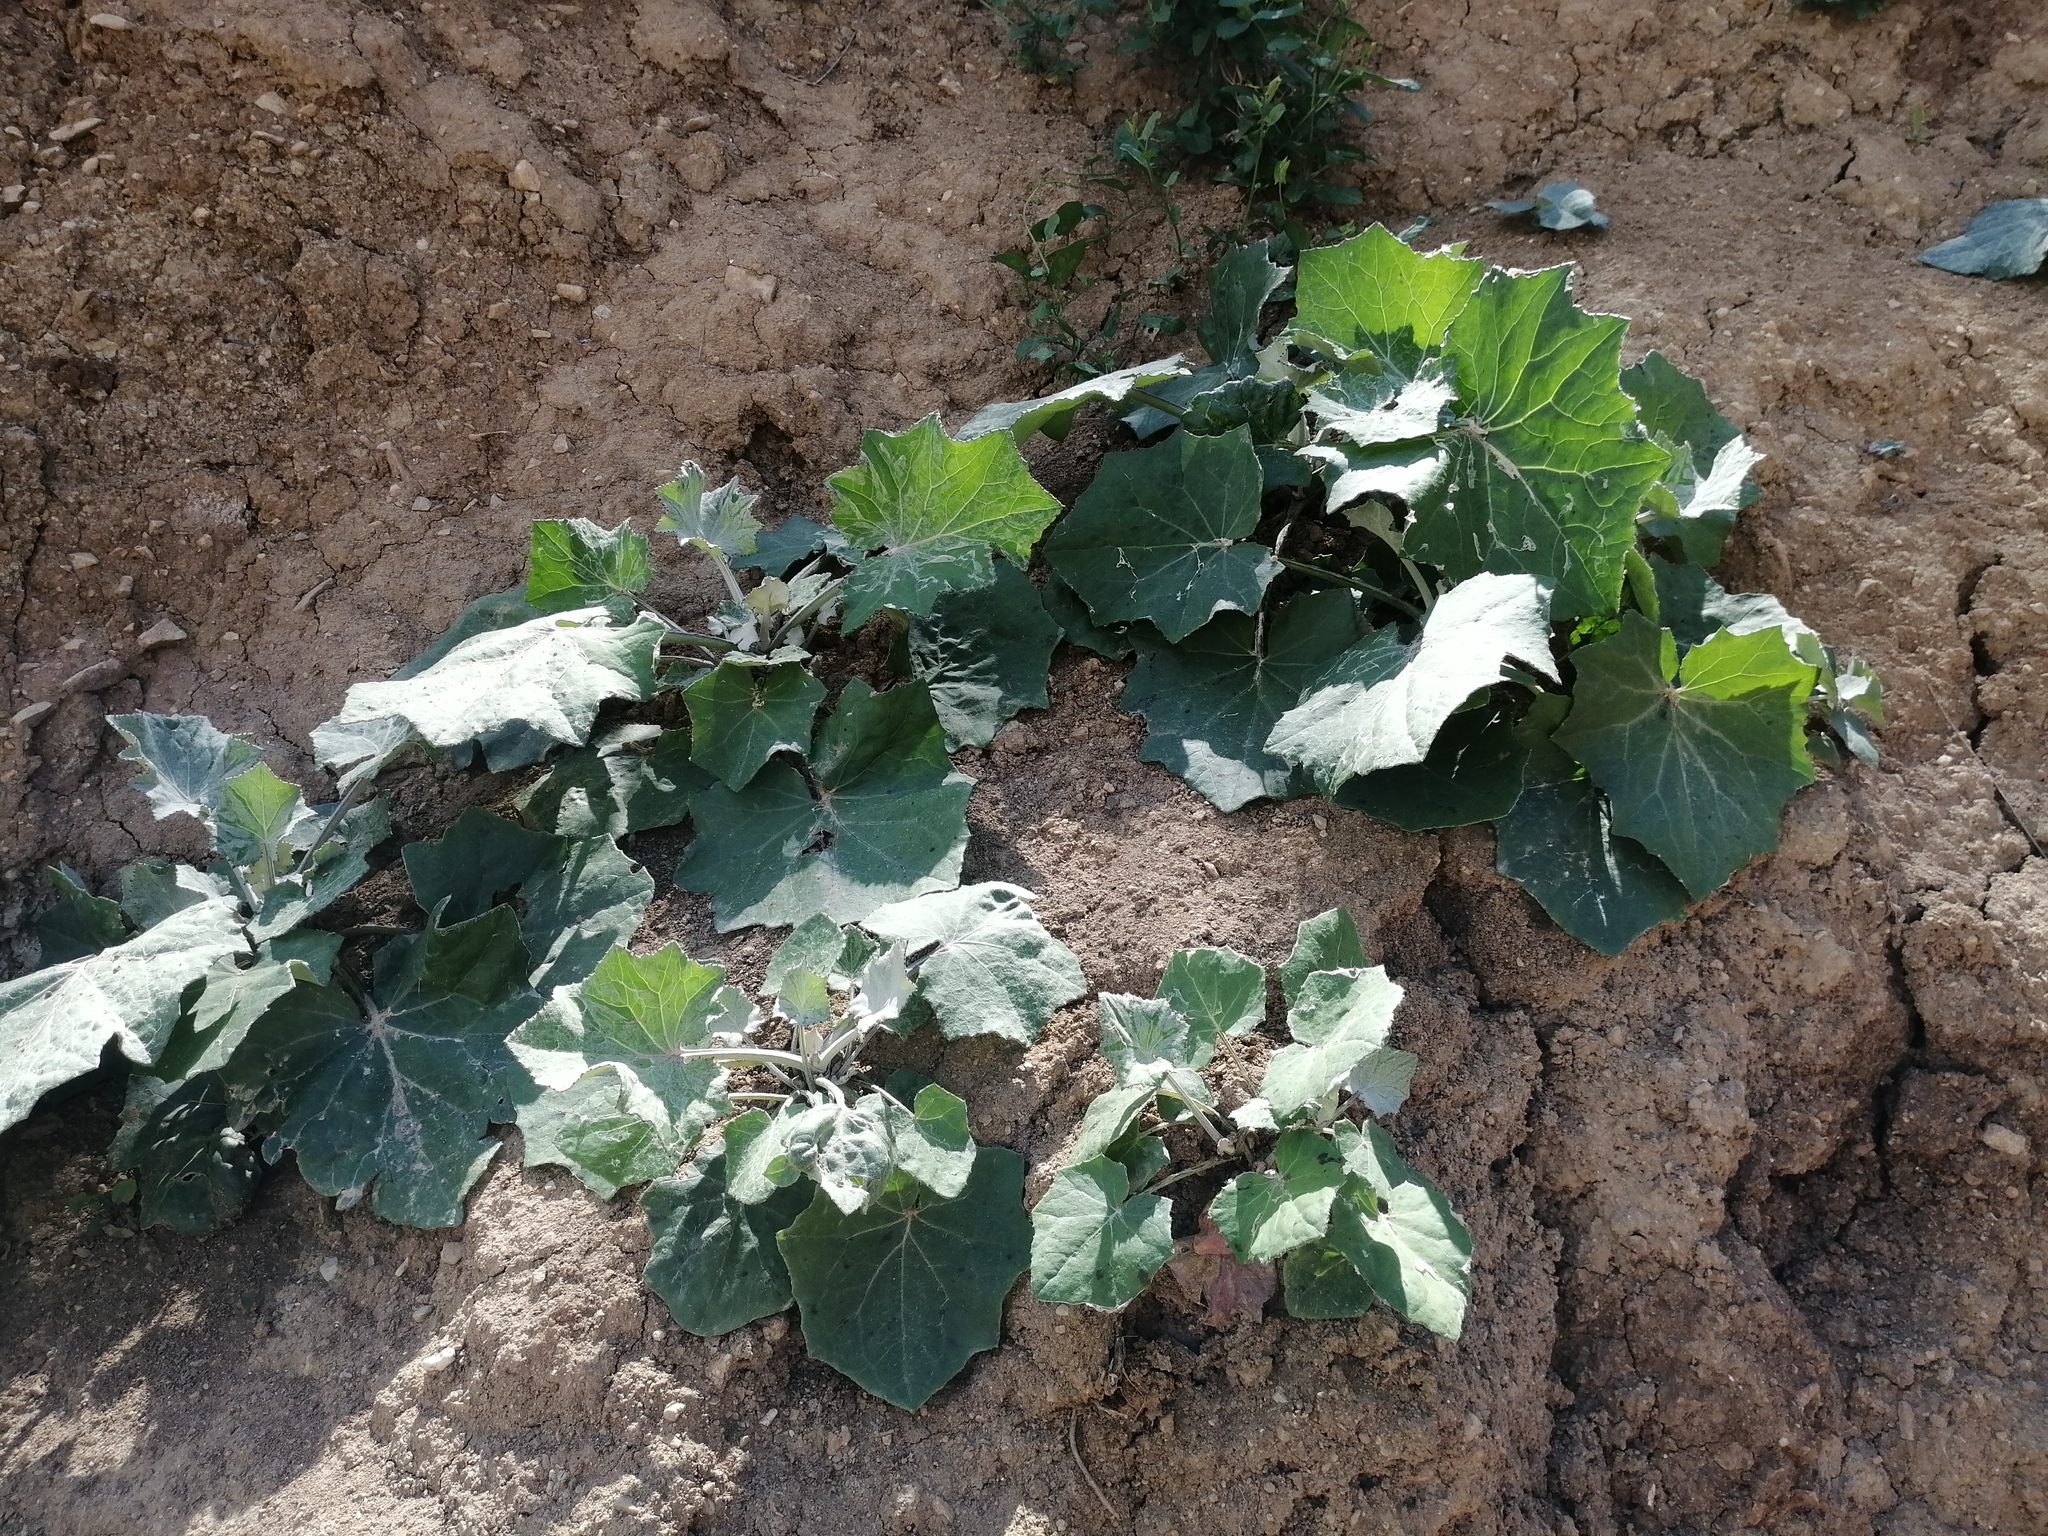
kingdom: Plantae
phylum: Tracheophyta
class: Magnoliopsida
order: Asterales
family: Asteraceae
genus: Tussilago
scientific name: Tussilago farfara
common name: Coltsfoot
